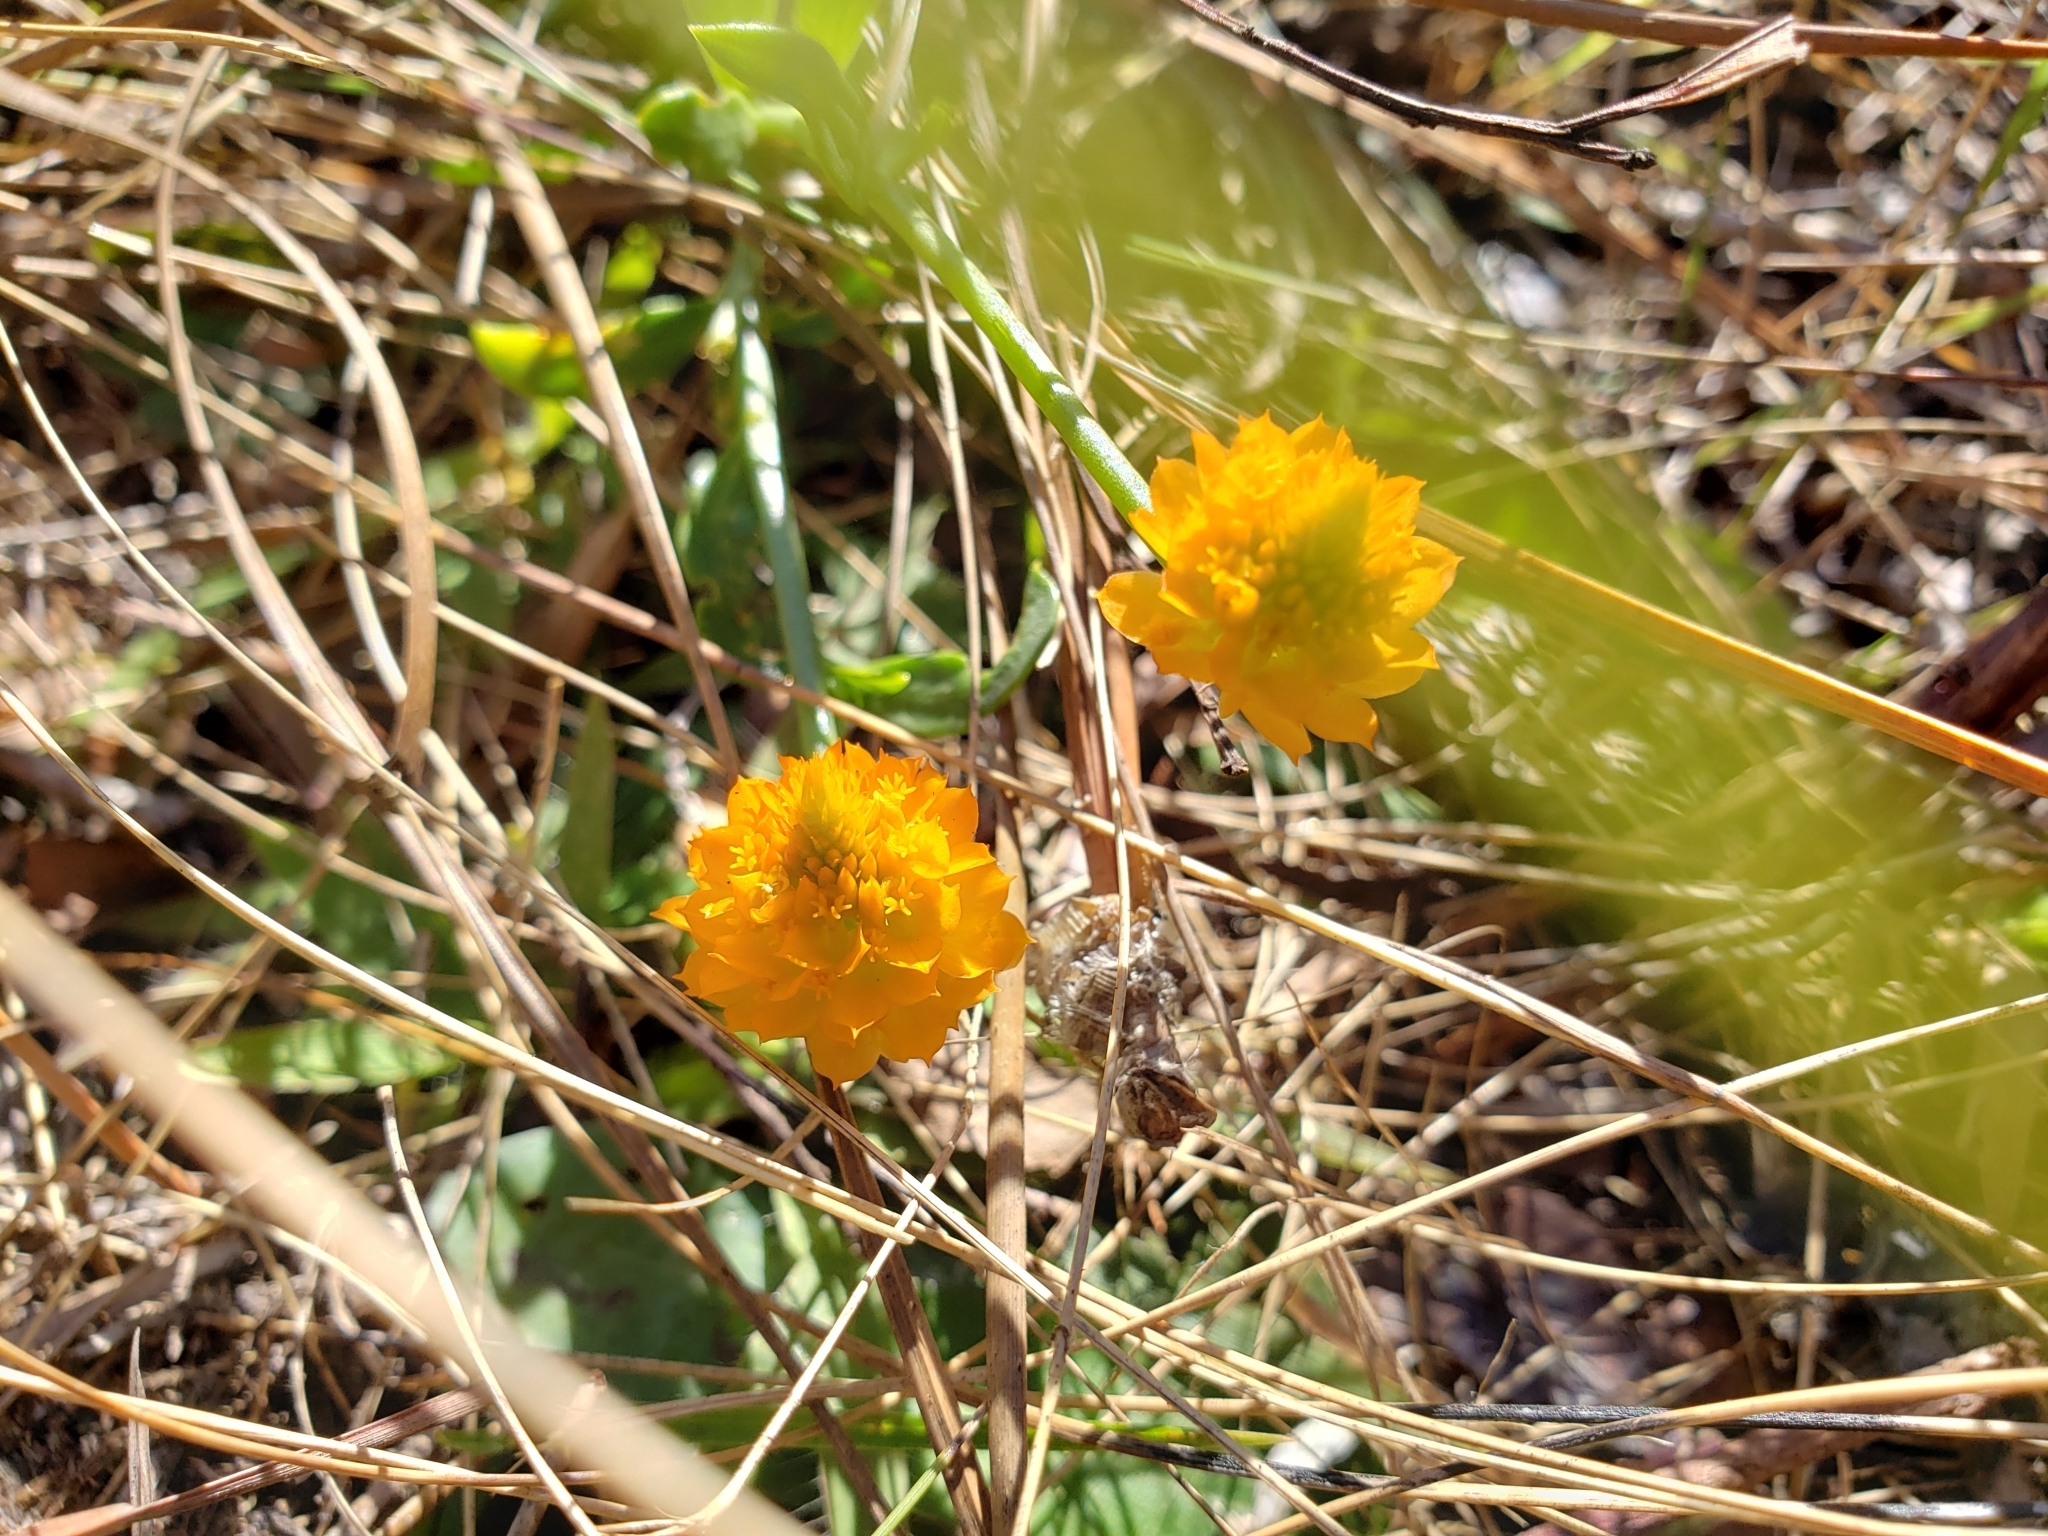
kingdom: Plantae
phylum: Tracheophyta
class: Magnoliopsida
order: Fabales
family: Polygalaceae
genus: Polygala
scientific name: Polygala lutea
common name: Orange milkwort
